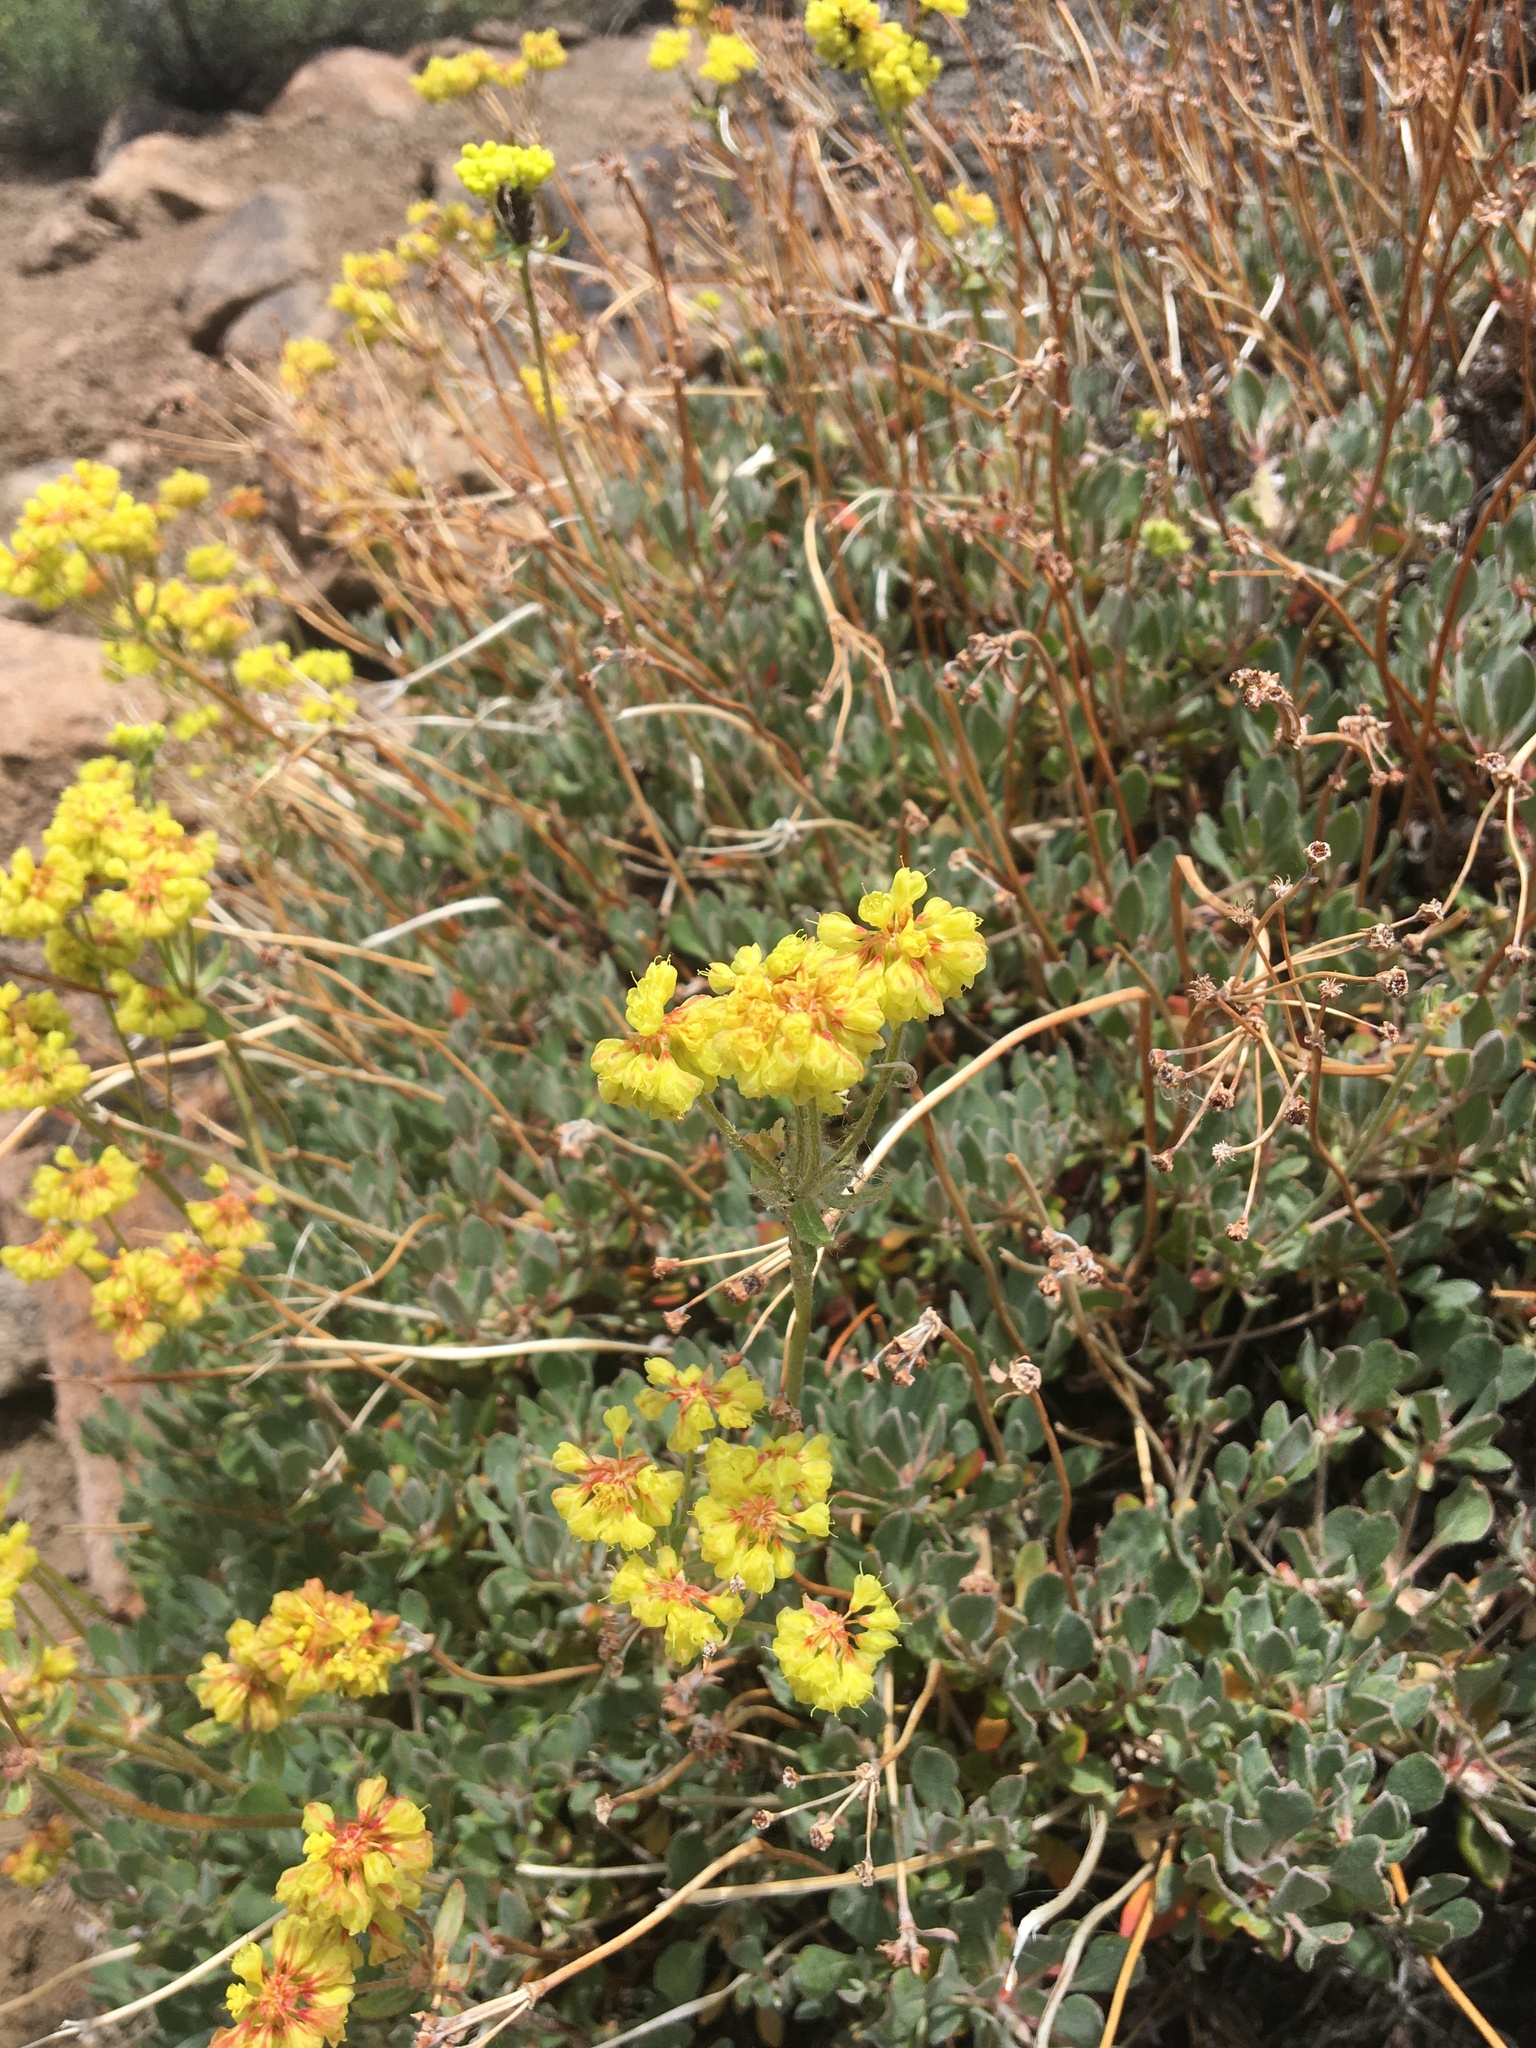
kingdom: Plantae
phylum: Tracheophyta
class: Magnoliopsida
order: Caryophyllales
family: Polygonaceae
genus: Eriogonum
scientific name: Eriogonum umbellatum
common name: Sulfur-buckwheat
